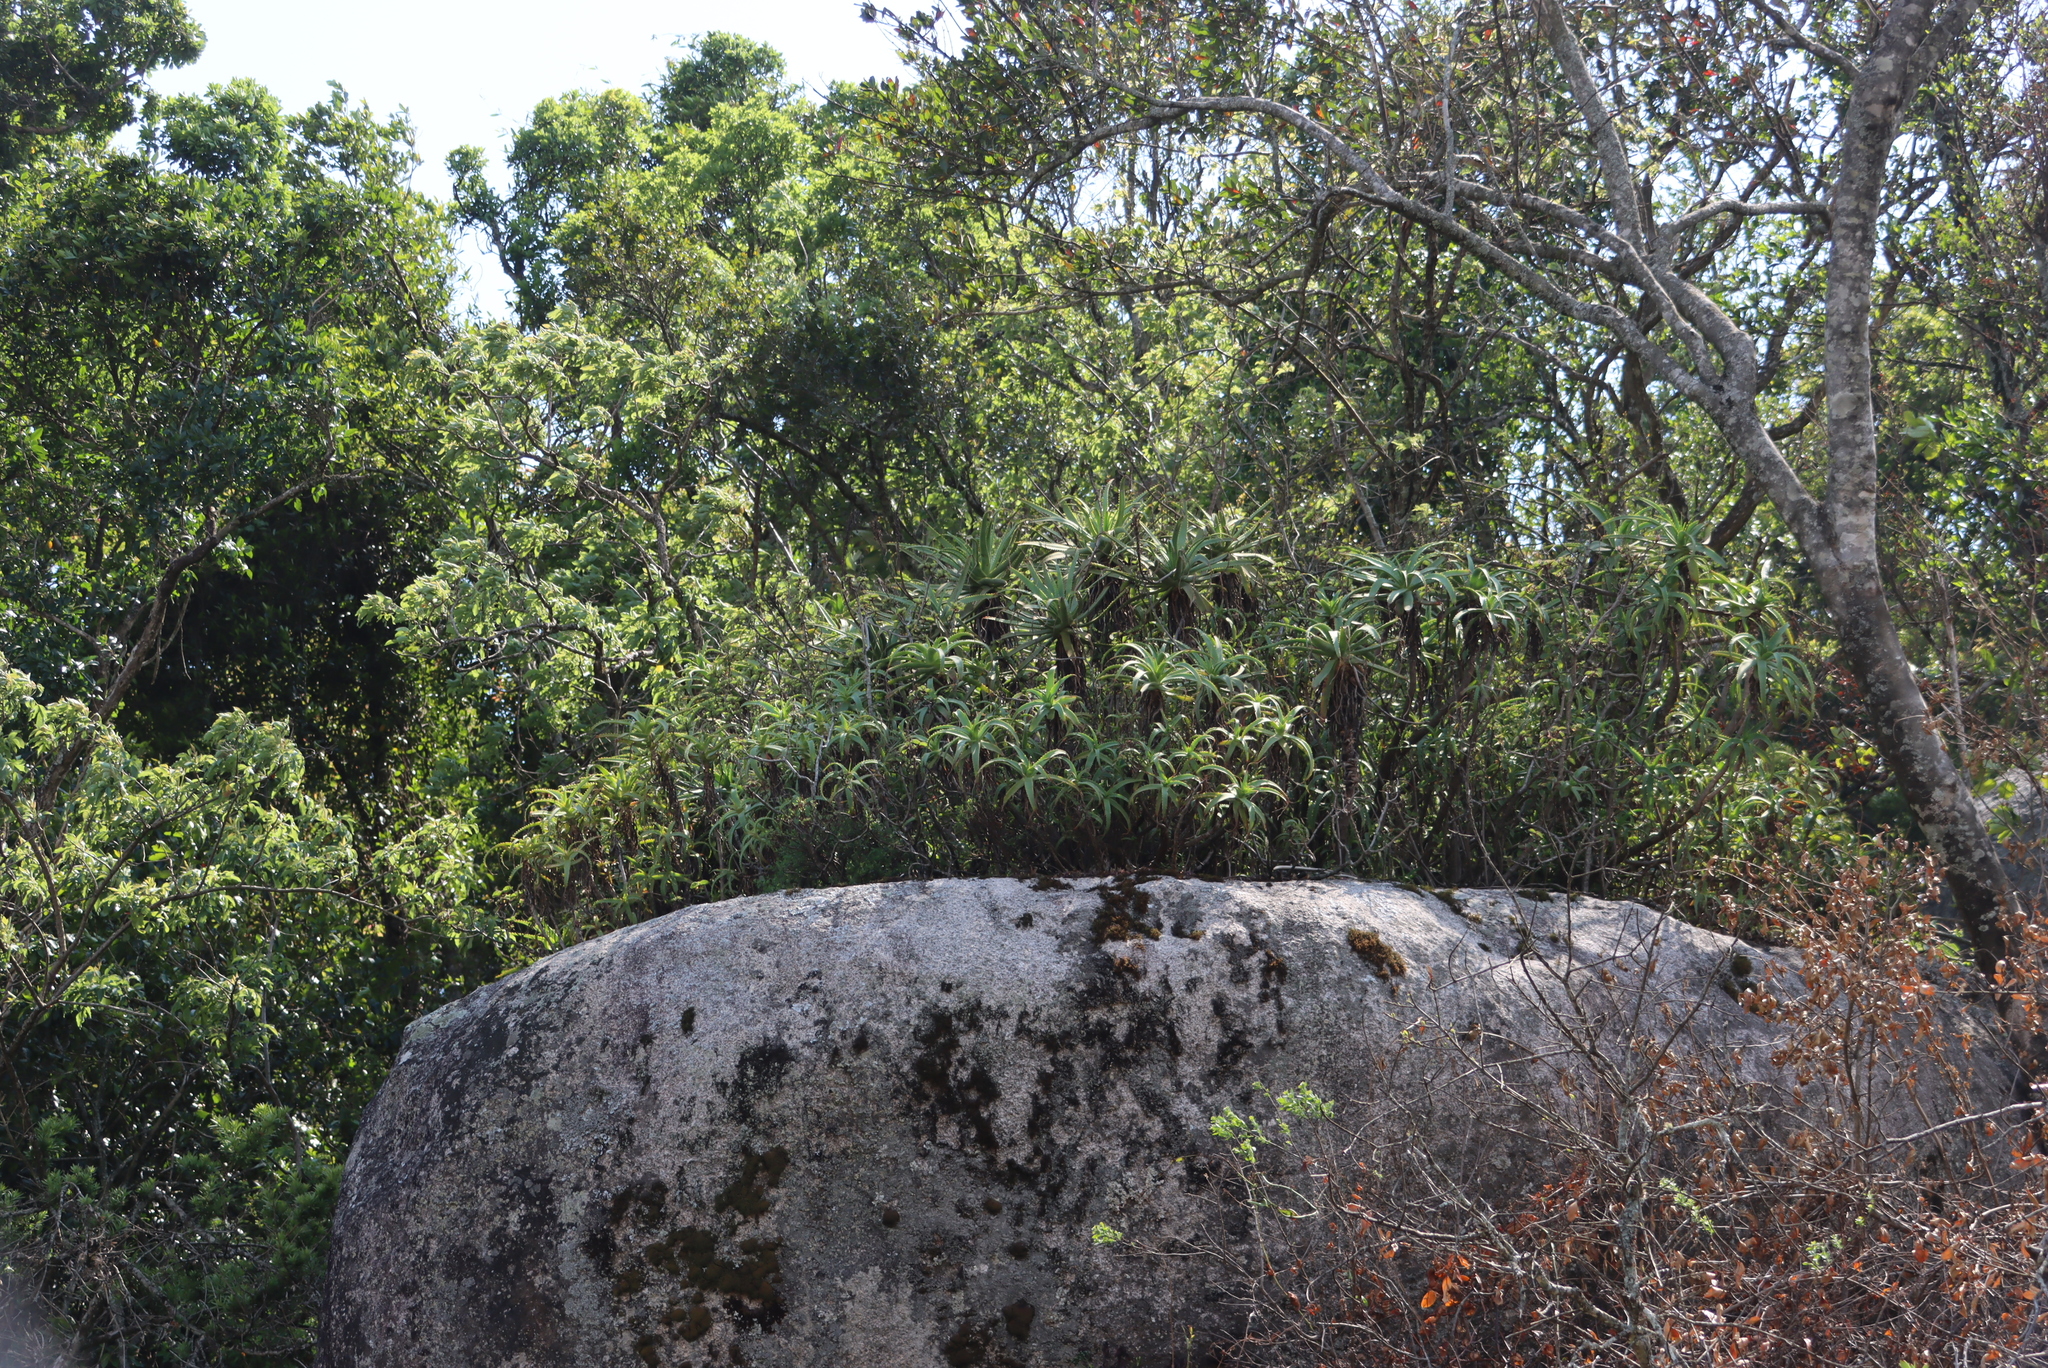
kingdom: Plantae
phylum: Tracheophyta
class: Liliopsida
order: Asparagales
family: Asphodelaceae
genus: Aloe
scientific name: Aloe arborescens
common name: Candelabra aloe
